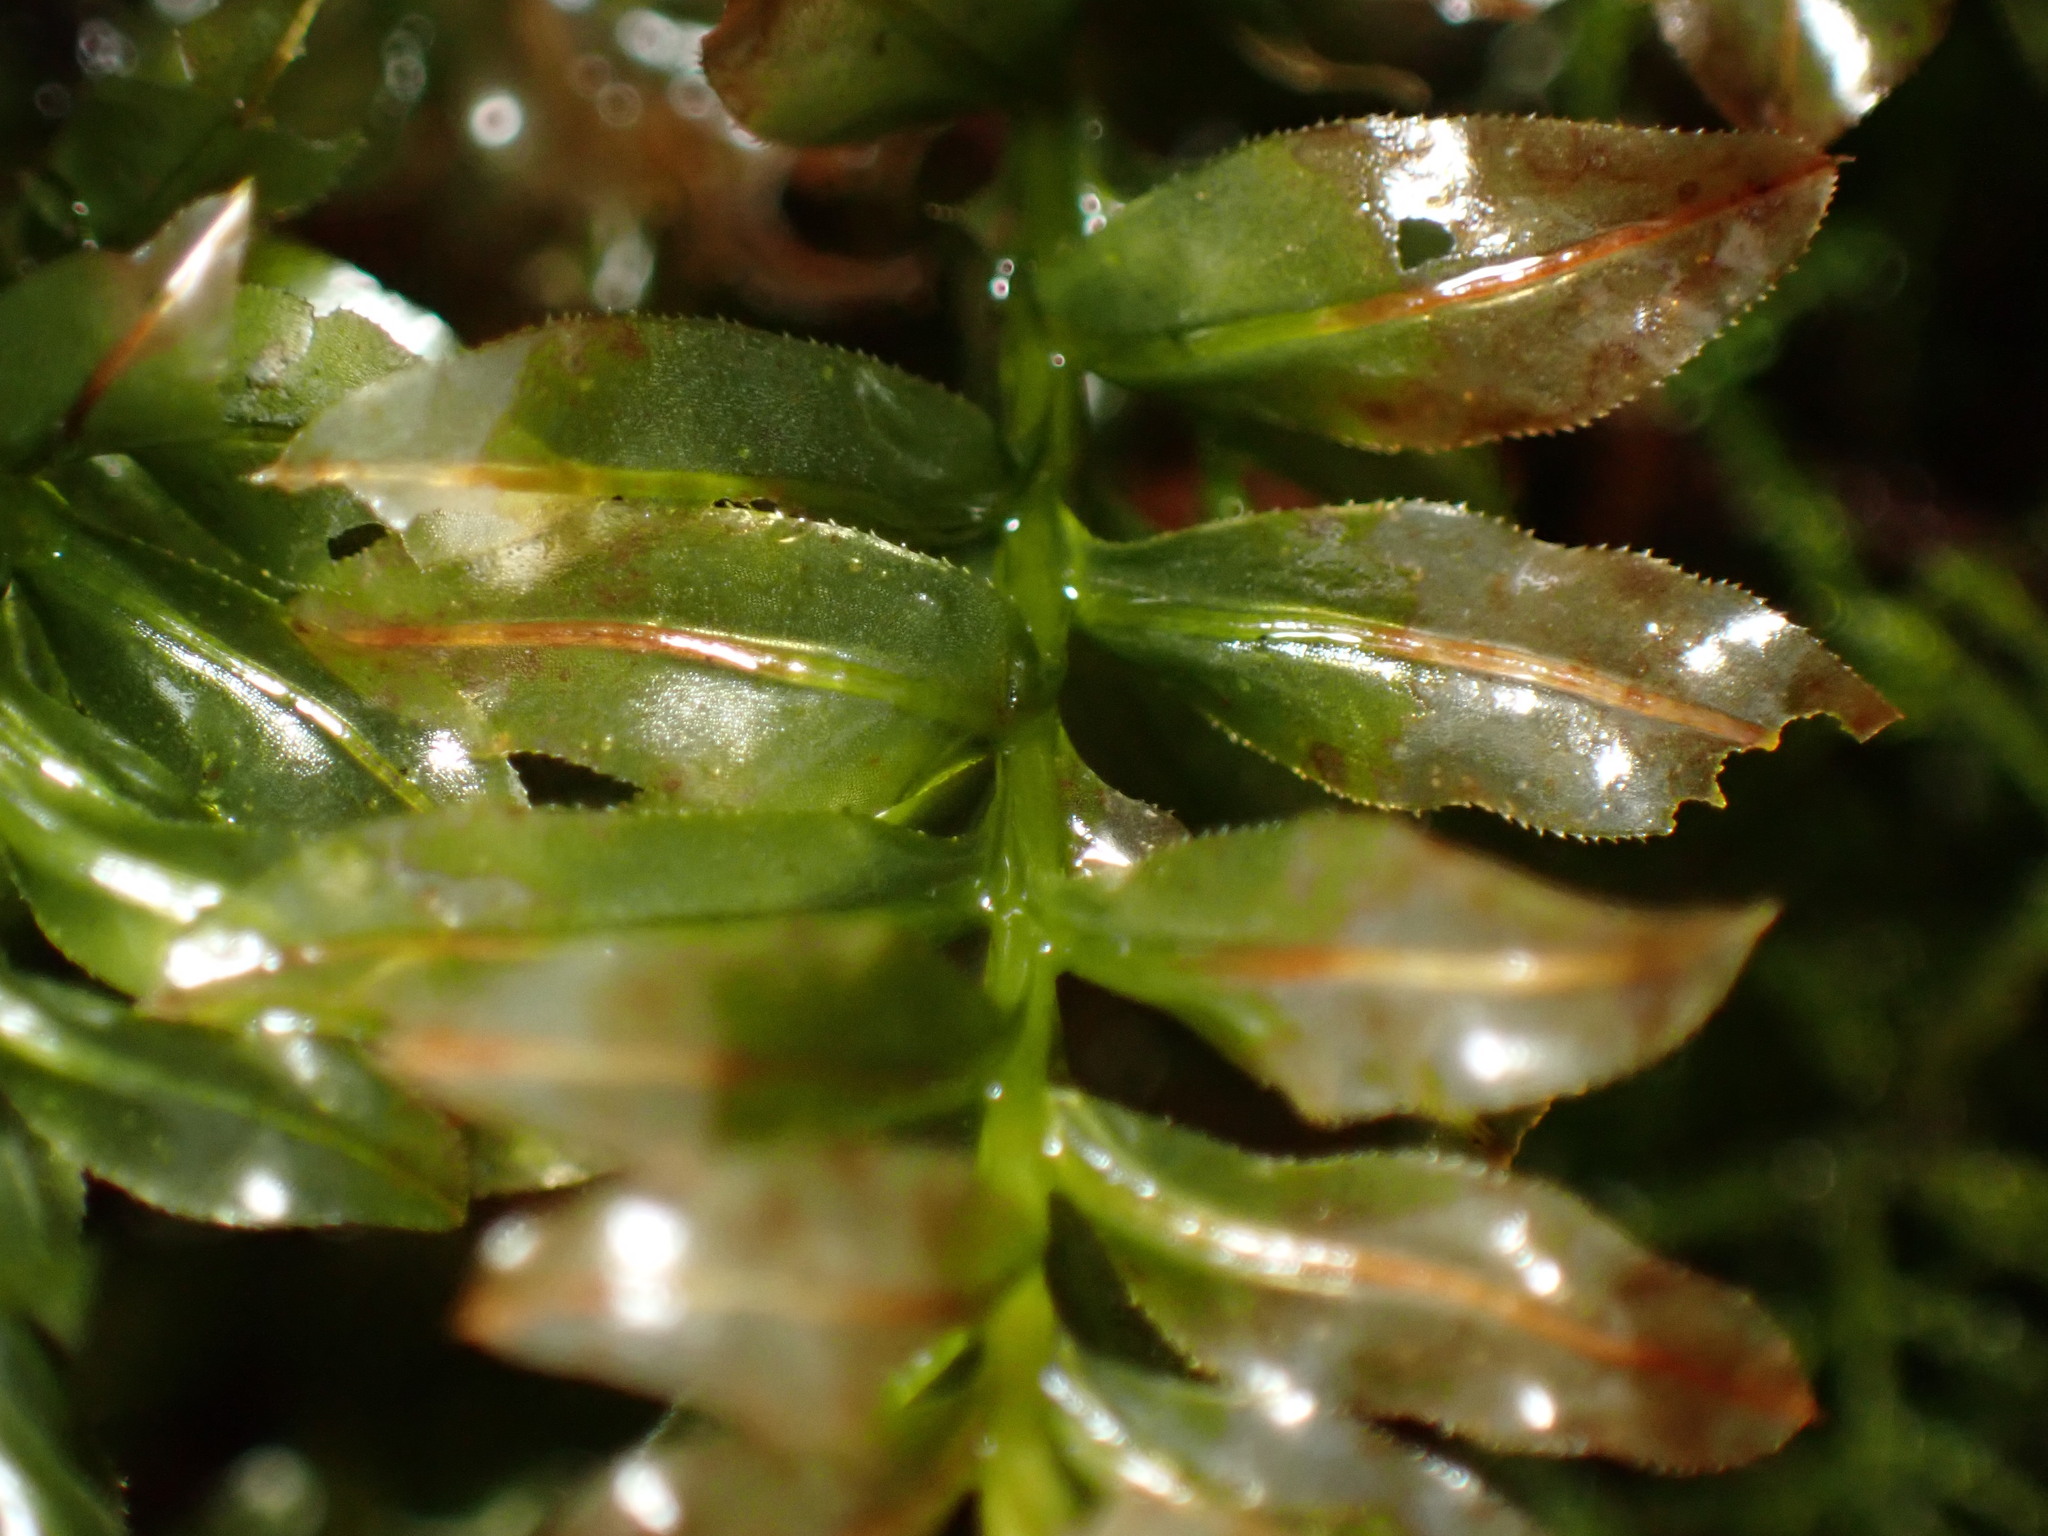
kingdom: Plantae
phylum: Bryophyta
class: Bryopsida
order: Bryales
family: Mniaceae
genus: Plagiomnium
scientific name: Plagiomnium insigne
